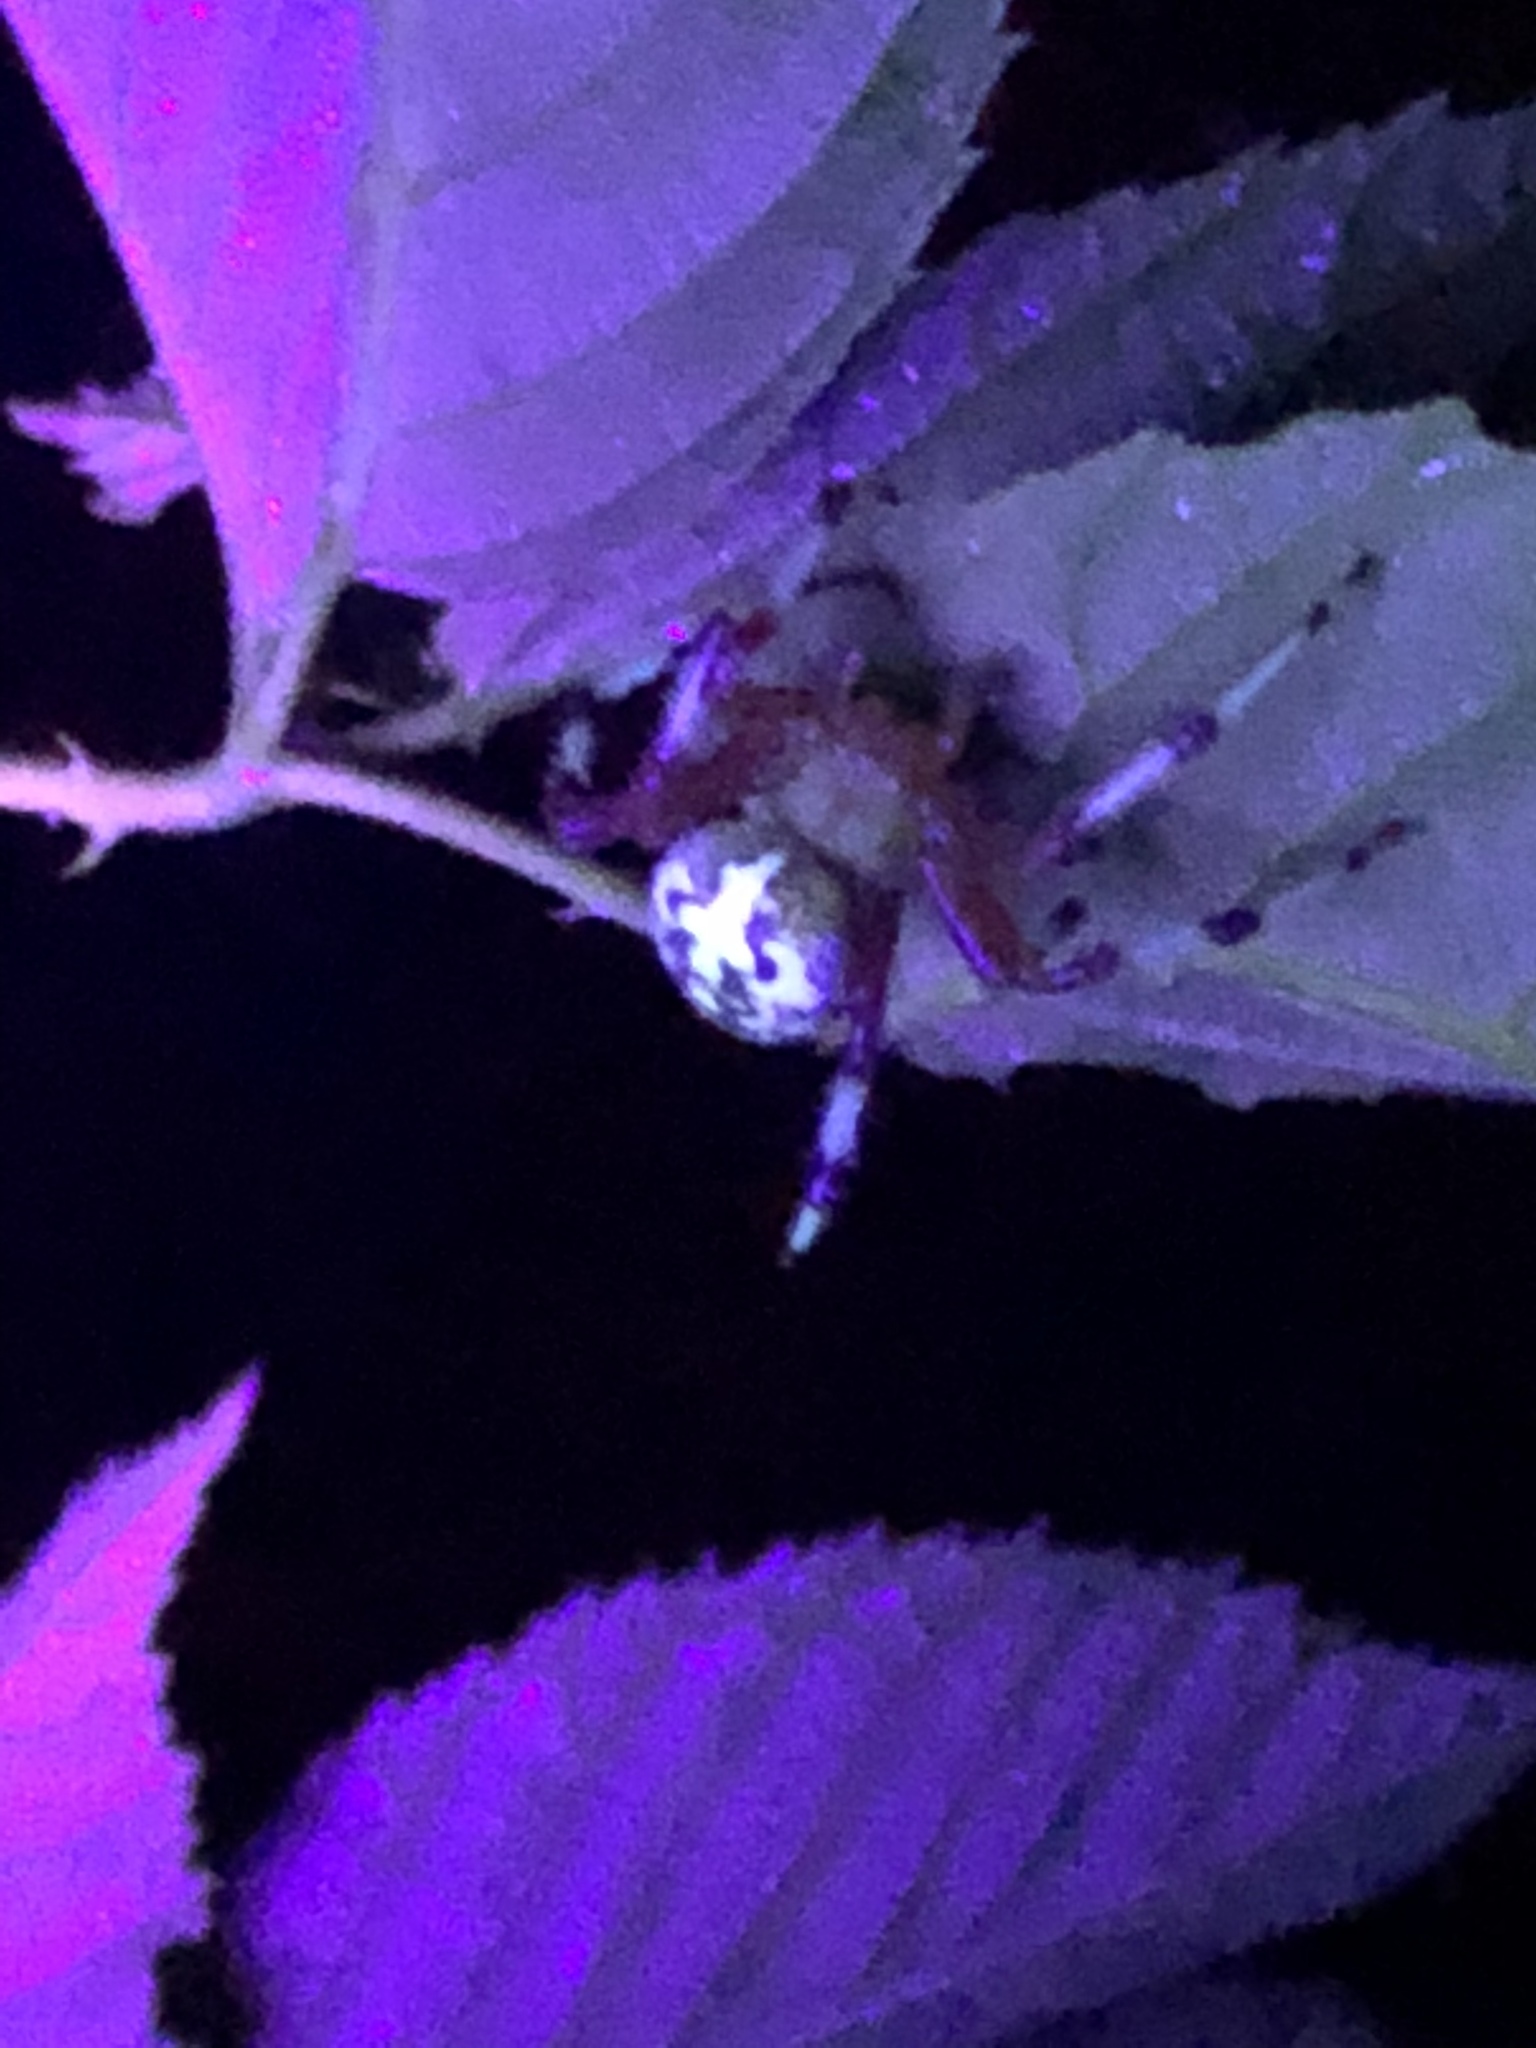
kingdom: Animalia
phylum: Arthropoda
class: Arachnida
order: Araneae
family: Araneidae
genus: Araneus
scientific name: Araneus marmoreus
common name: Marbled orbweaver
